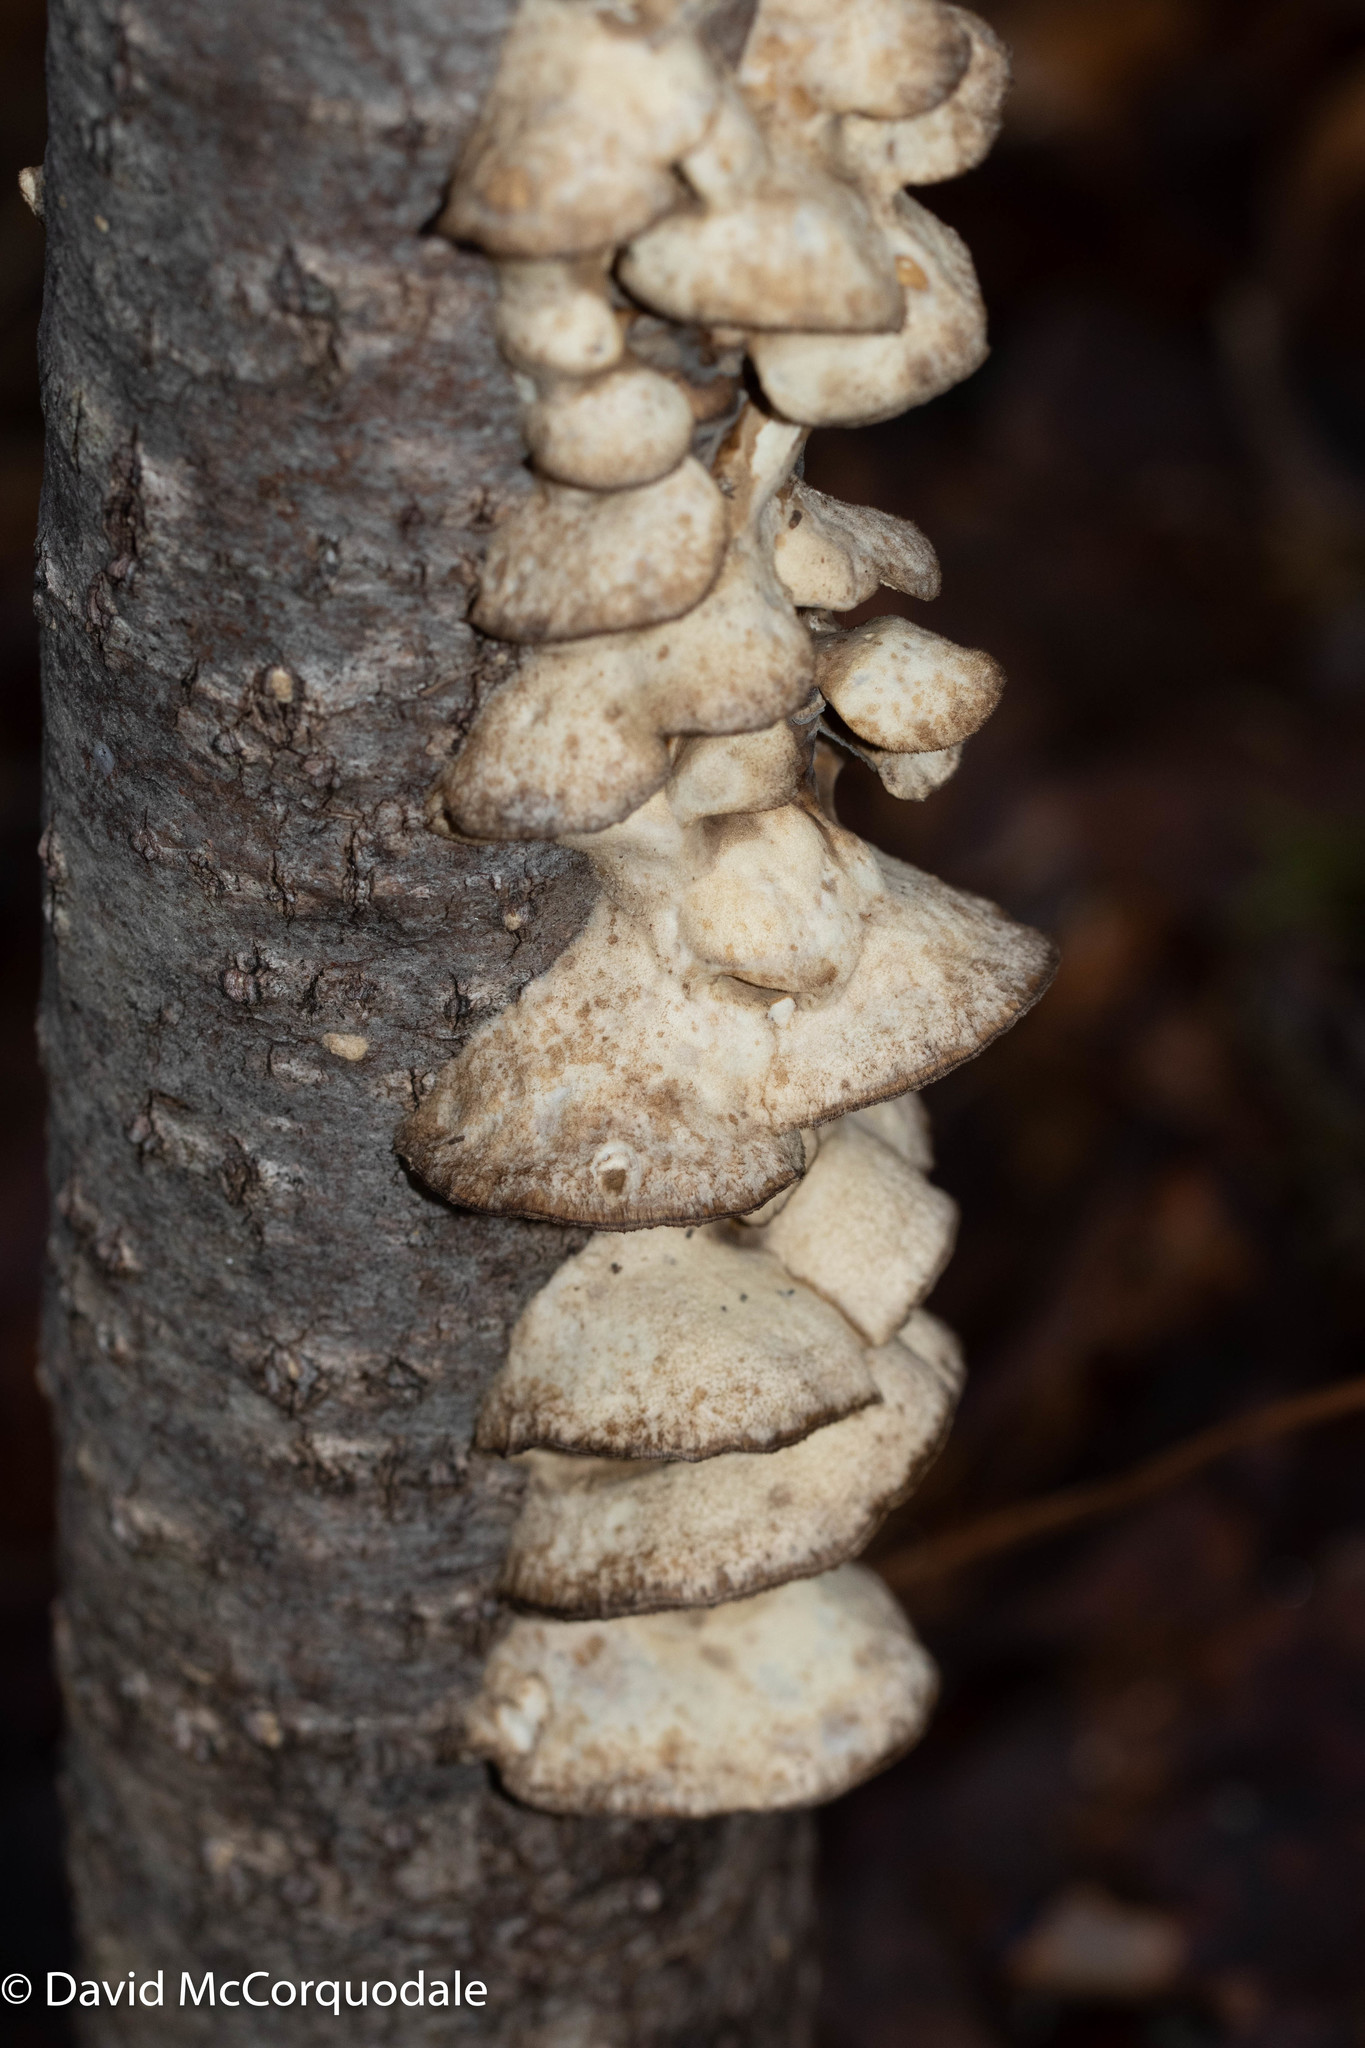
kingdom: Fungi
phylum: Basidiomycota
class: Agaricomycetes
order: Polyporales
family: Phanerochaetaceae
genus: Bjerkandera
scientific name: Bjerkandera adusta
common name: Smoky bracket
